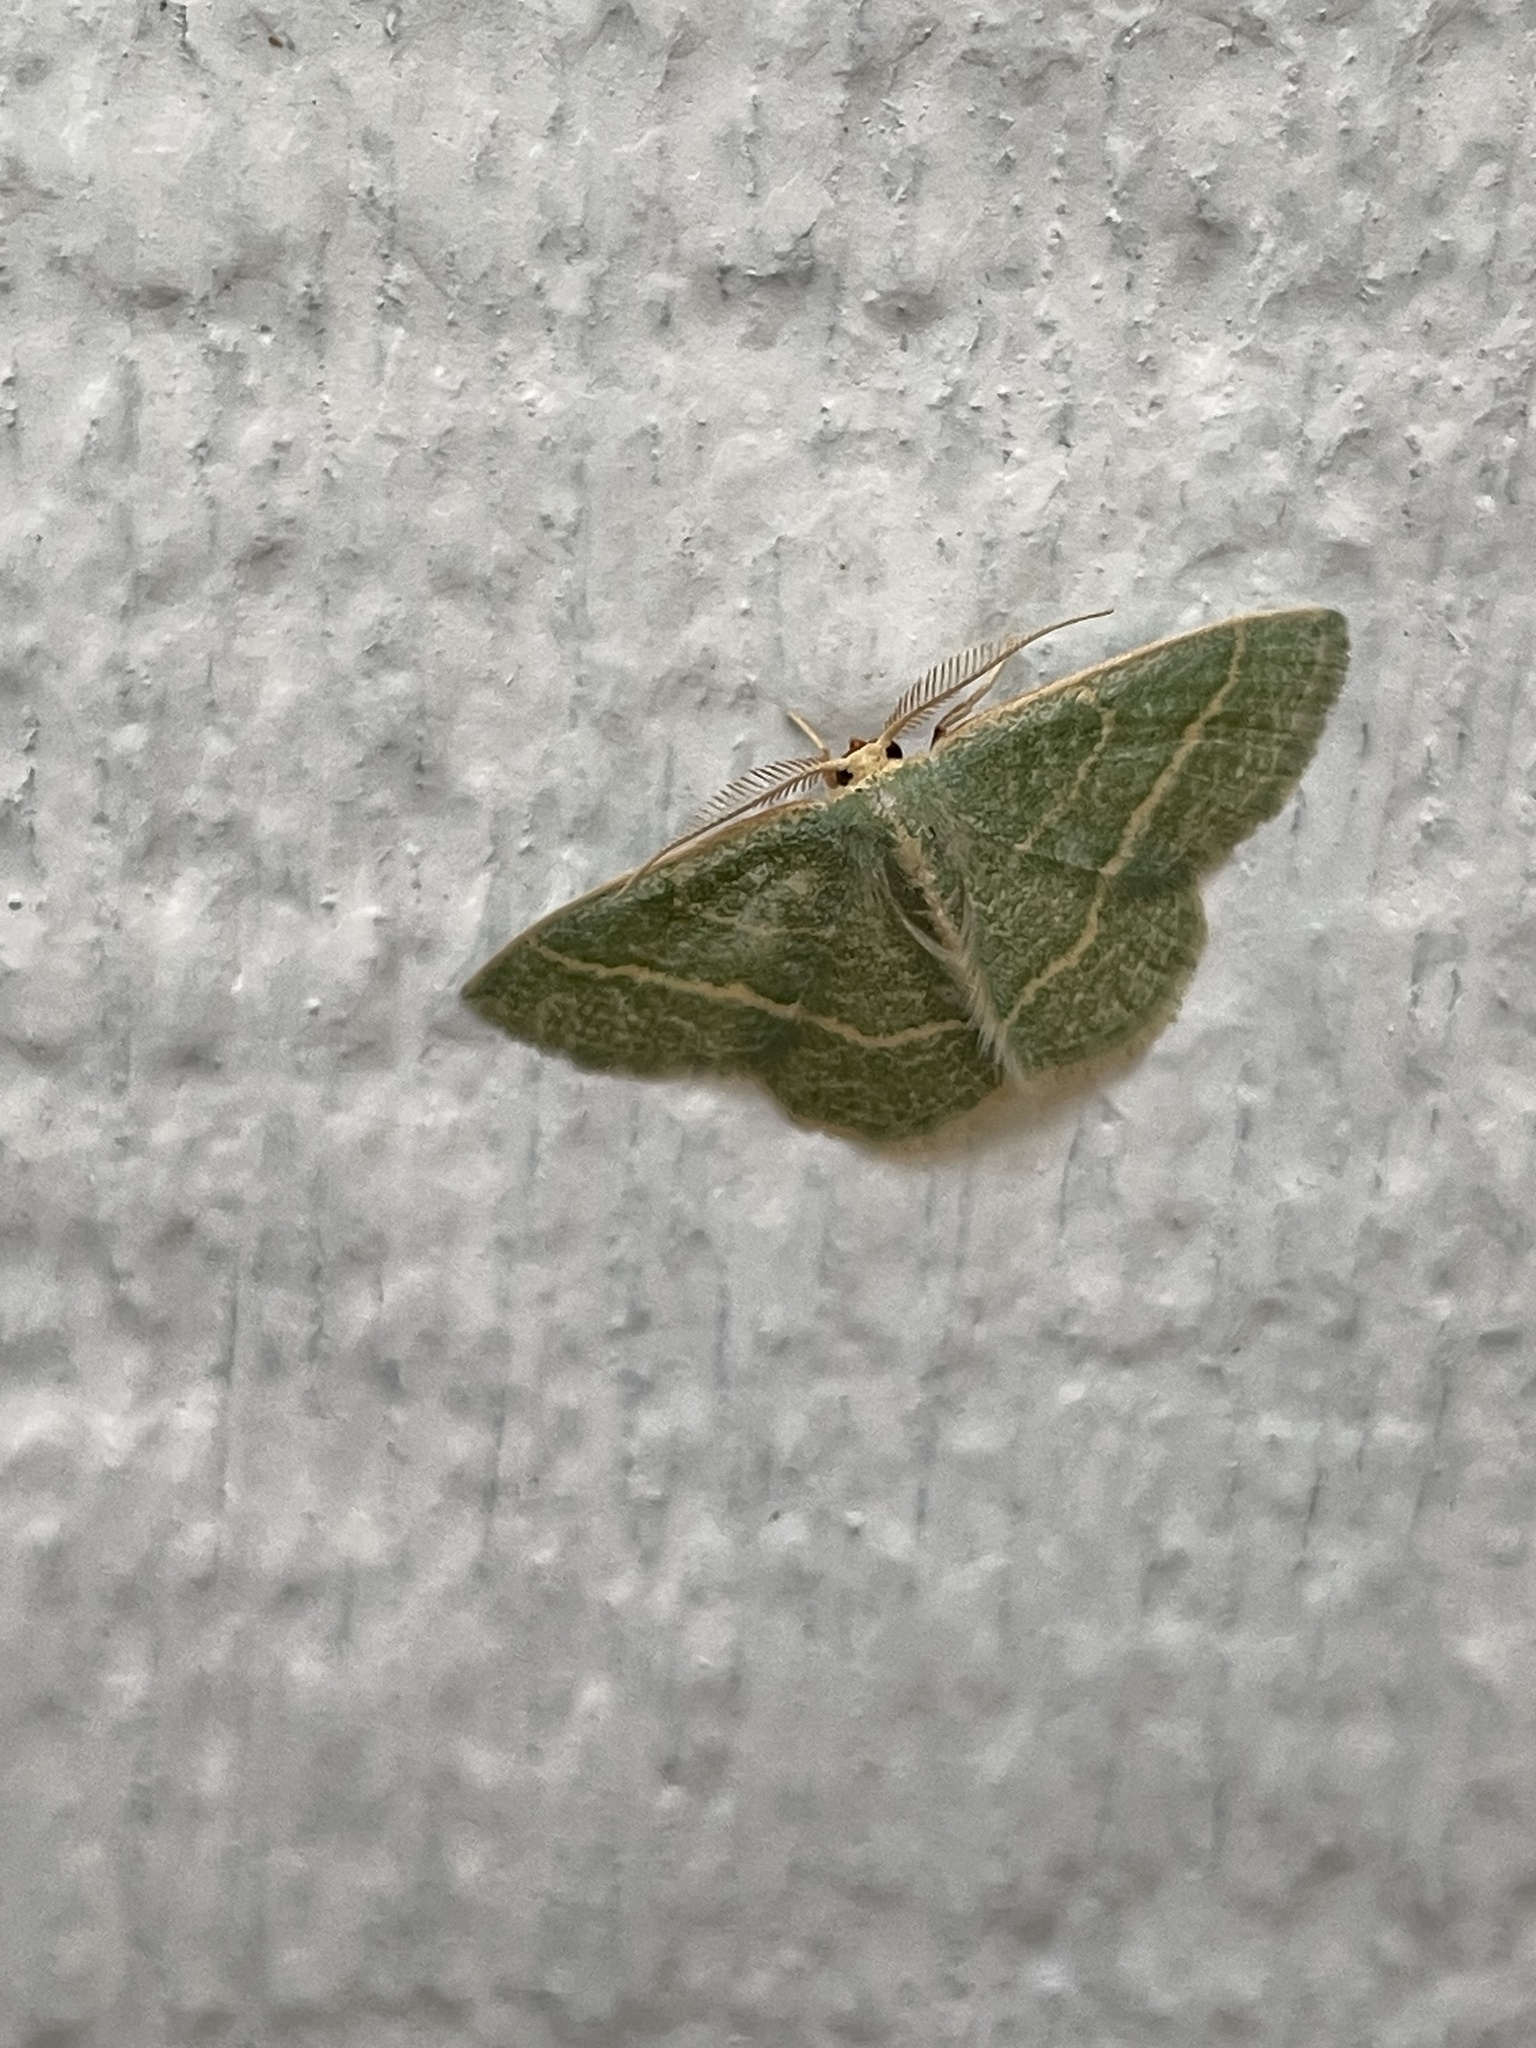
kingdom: Animalia
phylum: Arthropoda
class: Insecta
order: Lepidoptera
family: Geometridae
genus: Chlorochlamys
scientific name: Chlorochlamys chloroleucaria
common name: Blackberry looper
